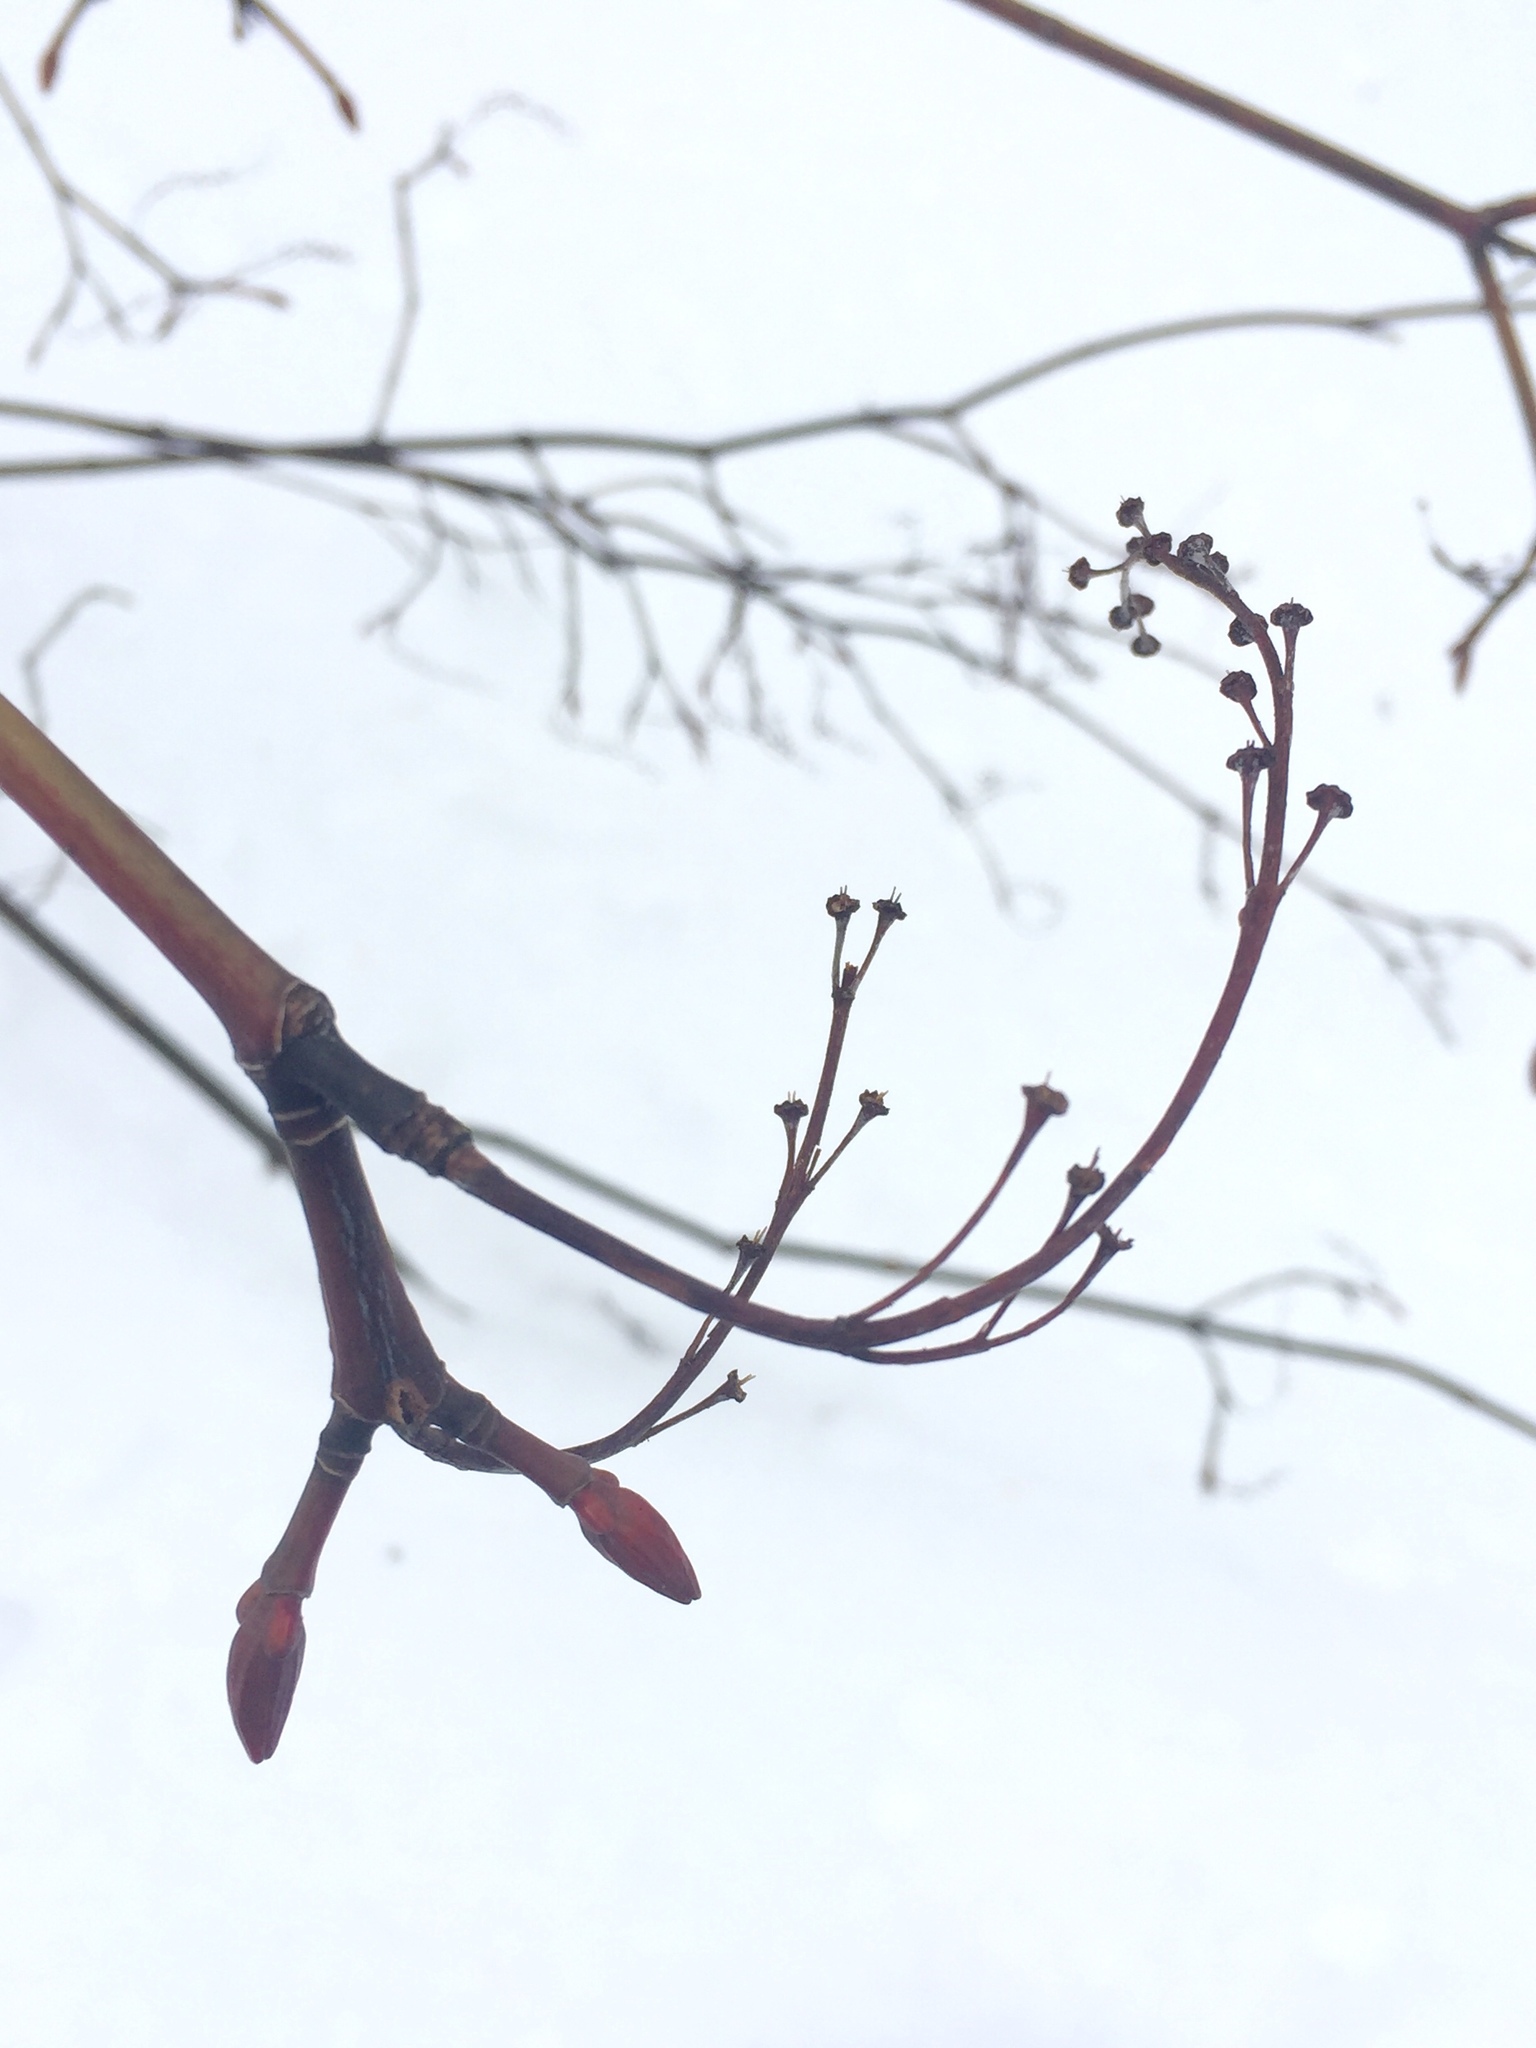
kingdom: Plantae
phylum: Tracheophyta
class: Magnoliopsida
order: Sapindales
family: Sapindaceae
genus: Acer
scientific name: Acer pensylvanicum
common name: Moosewood
